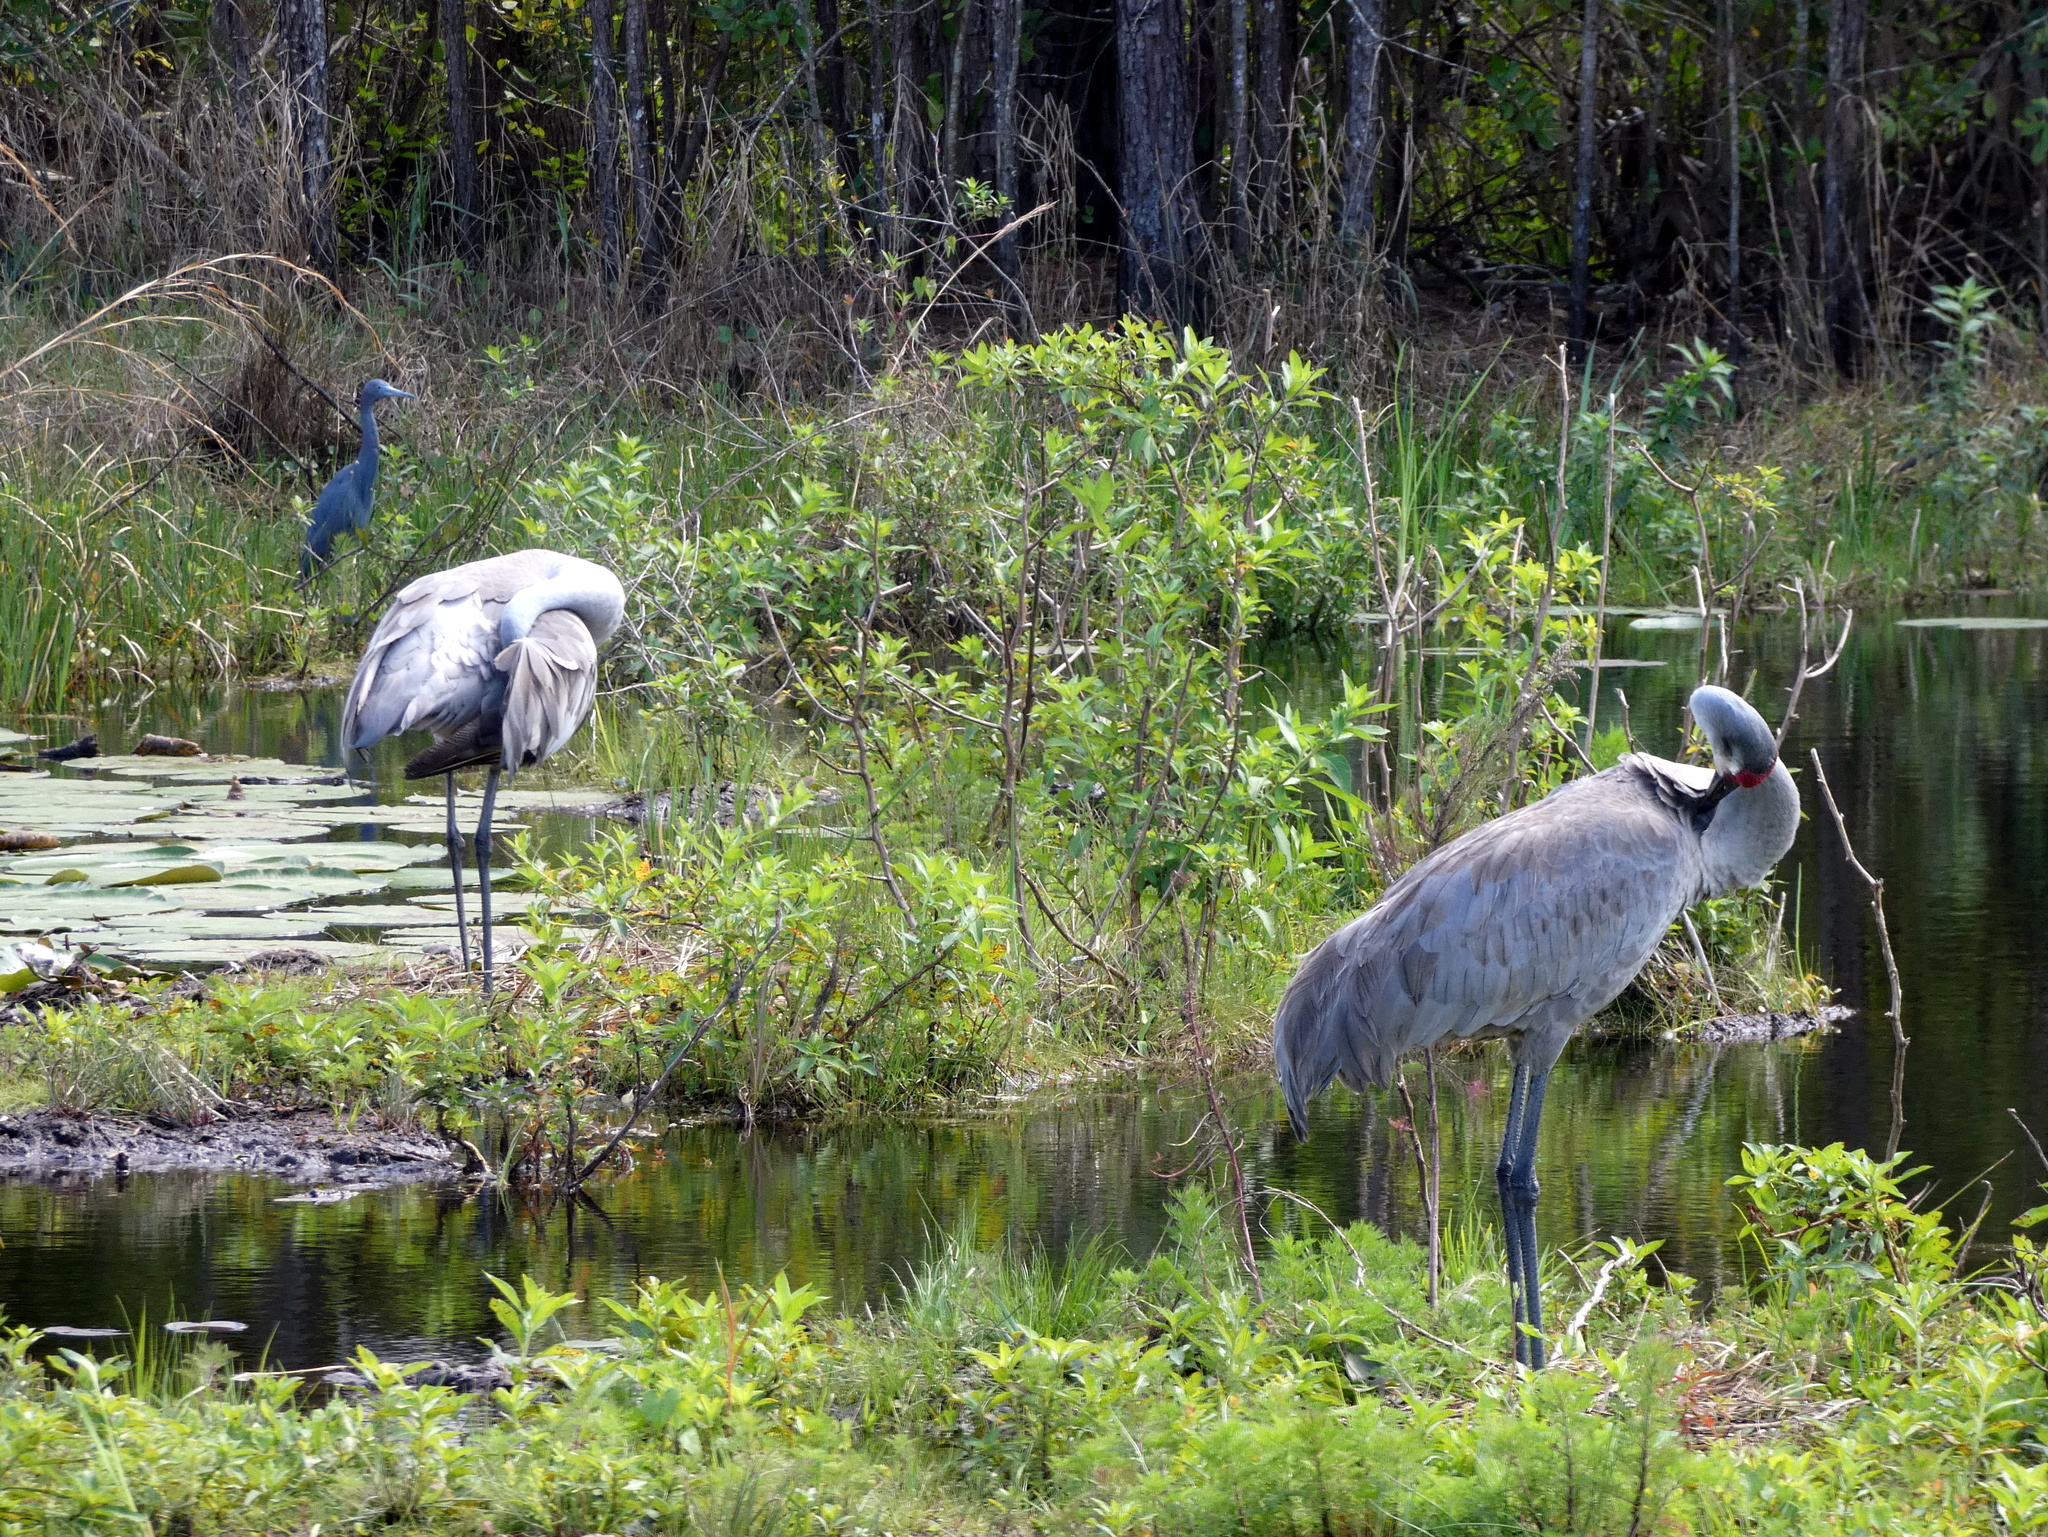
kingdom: Animalia
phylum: Chordata
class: Aves
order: Gruiformes
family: Gruidae
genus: Grus
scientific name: Grus canadensis
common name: Sandhill crane
